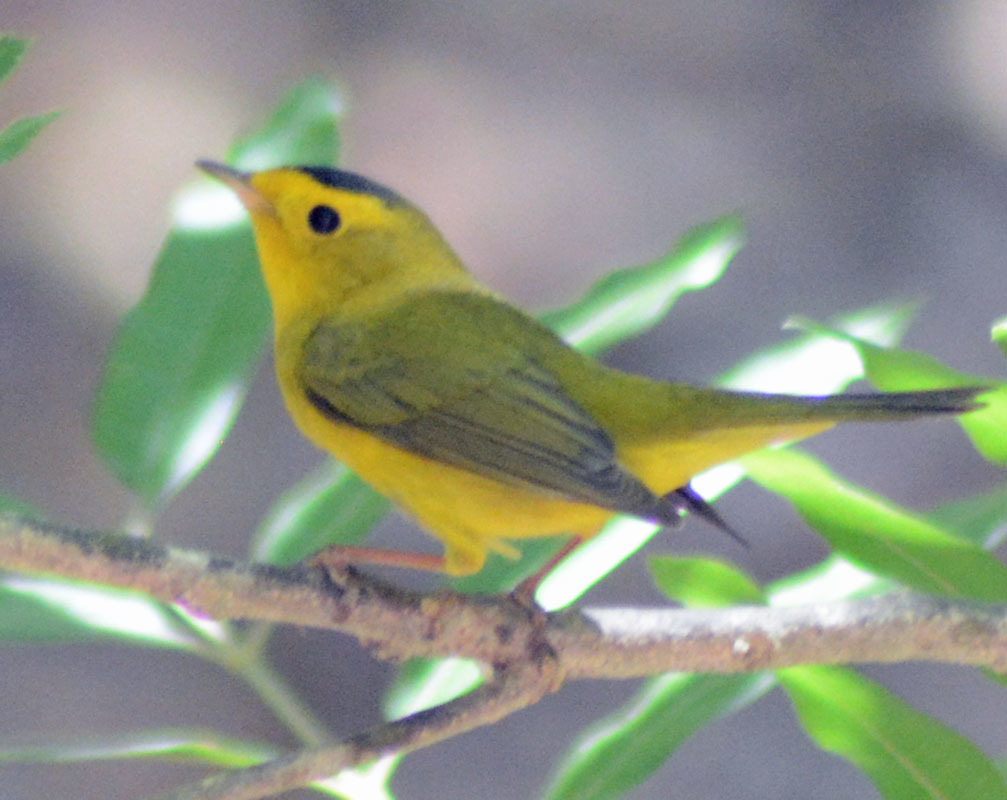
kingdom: Animalia
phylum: Chordata
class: Aves
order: Passeriformes
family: Parulidae
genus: Cardellina
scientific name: Cardellina pusilla
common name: Wilson's warbler
